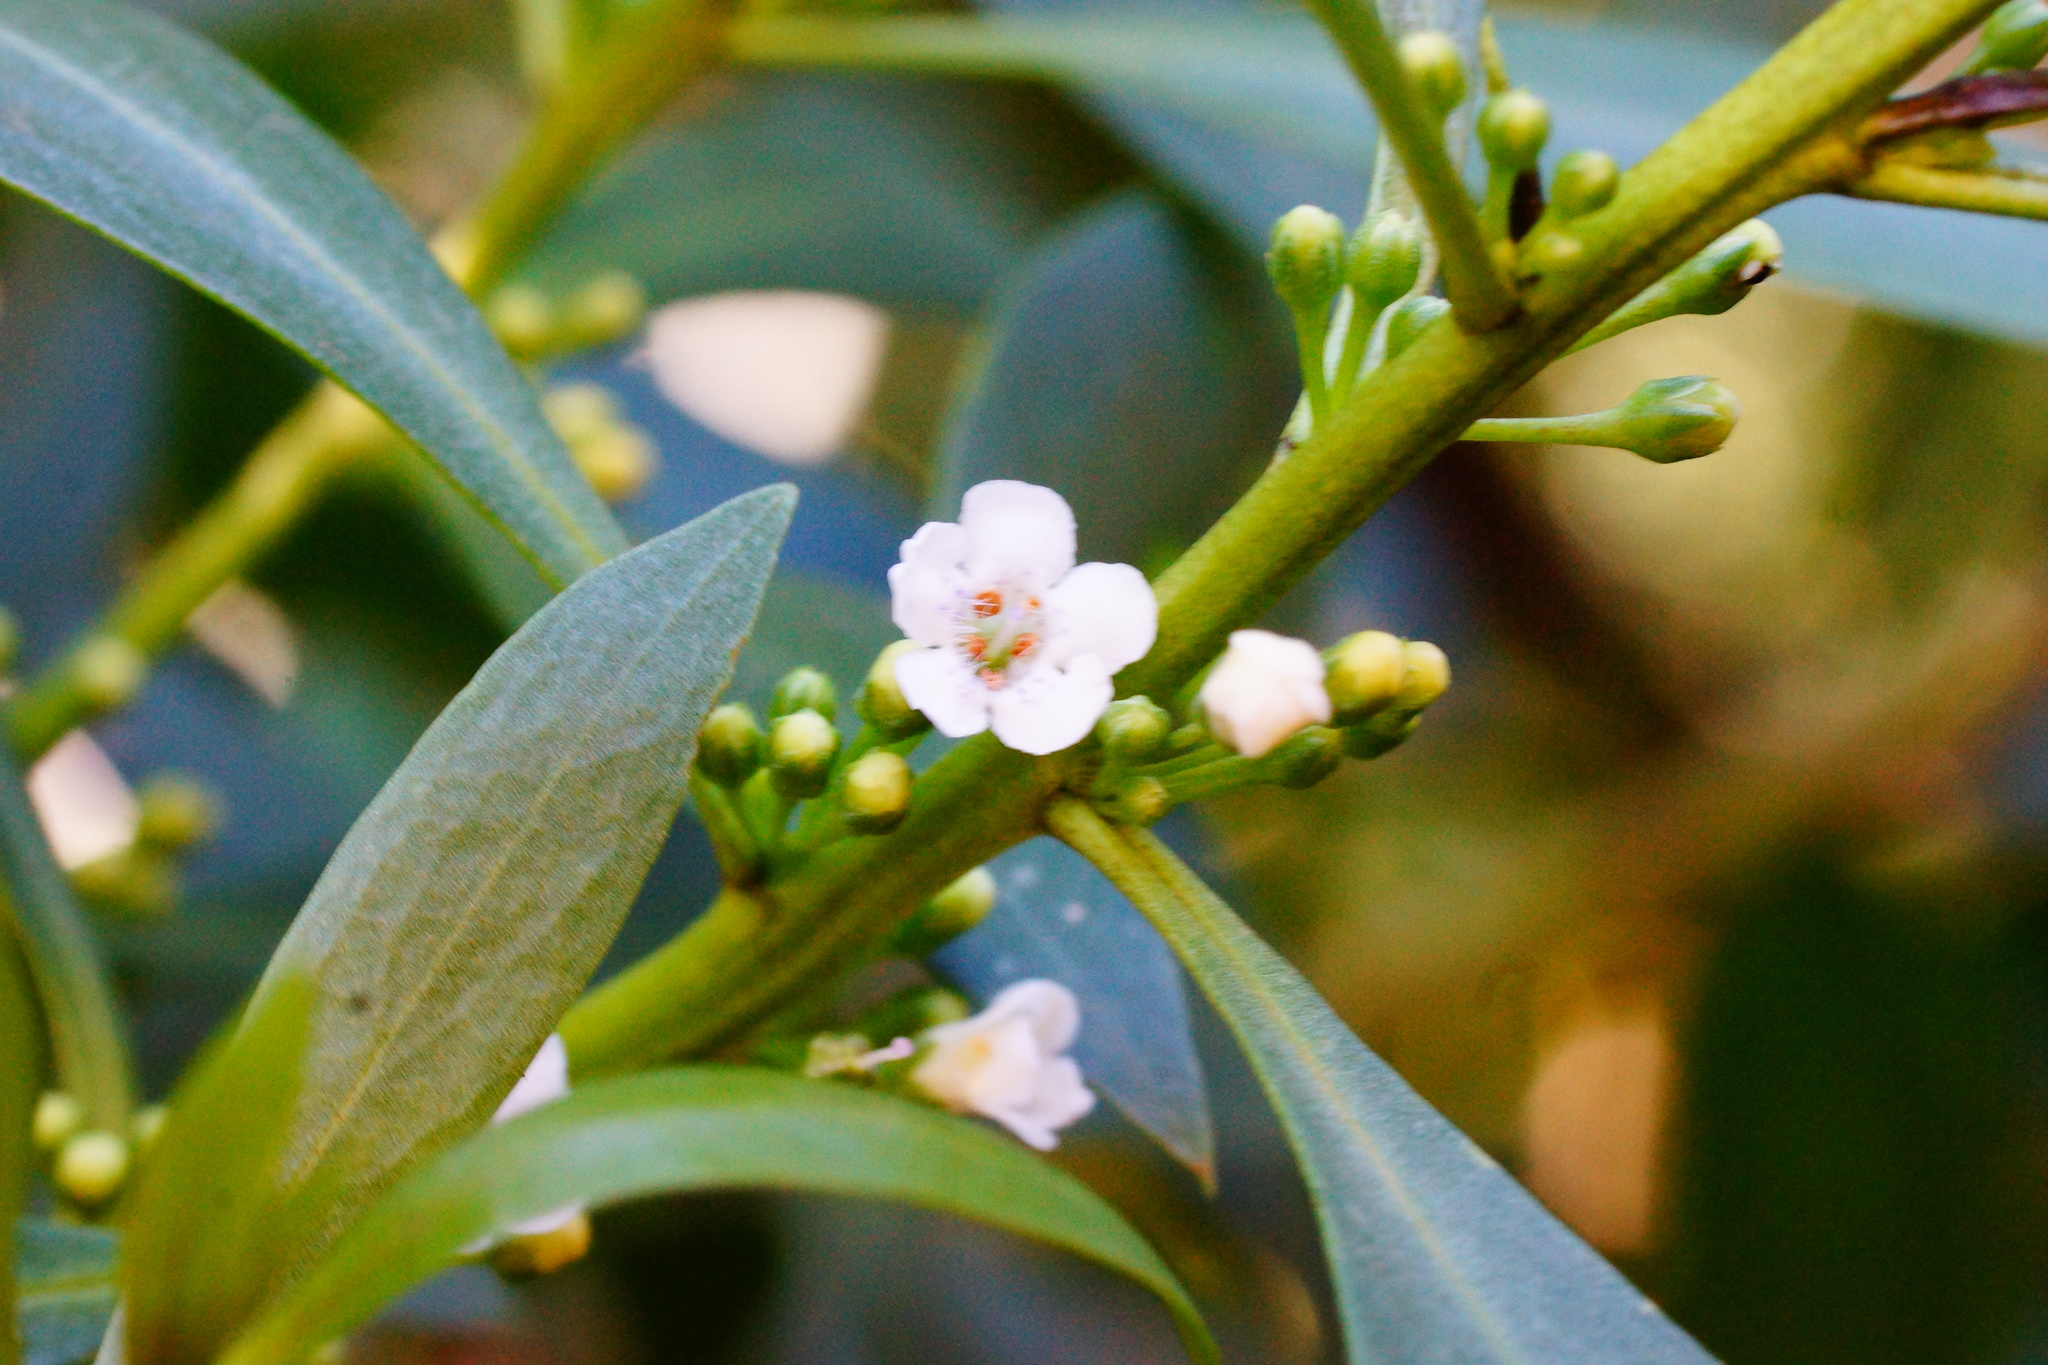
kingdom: Plantae
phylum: Tracheophyta
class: Magnoliopsida
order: Lamiales
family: Scrophulariaceae
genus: Myoporum
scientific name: Myoporum insulare
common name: Common boobialla
